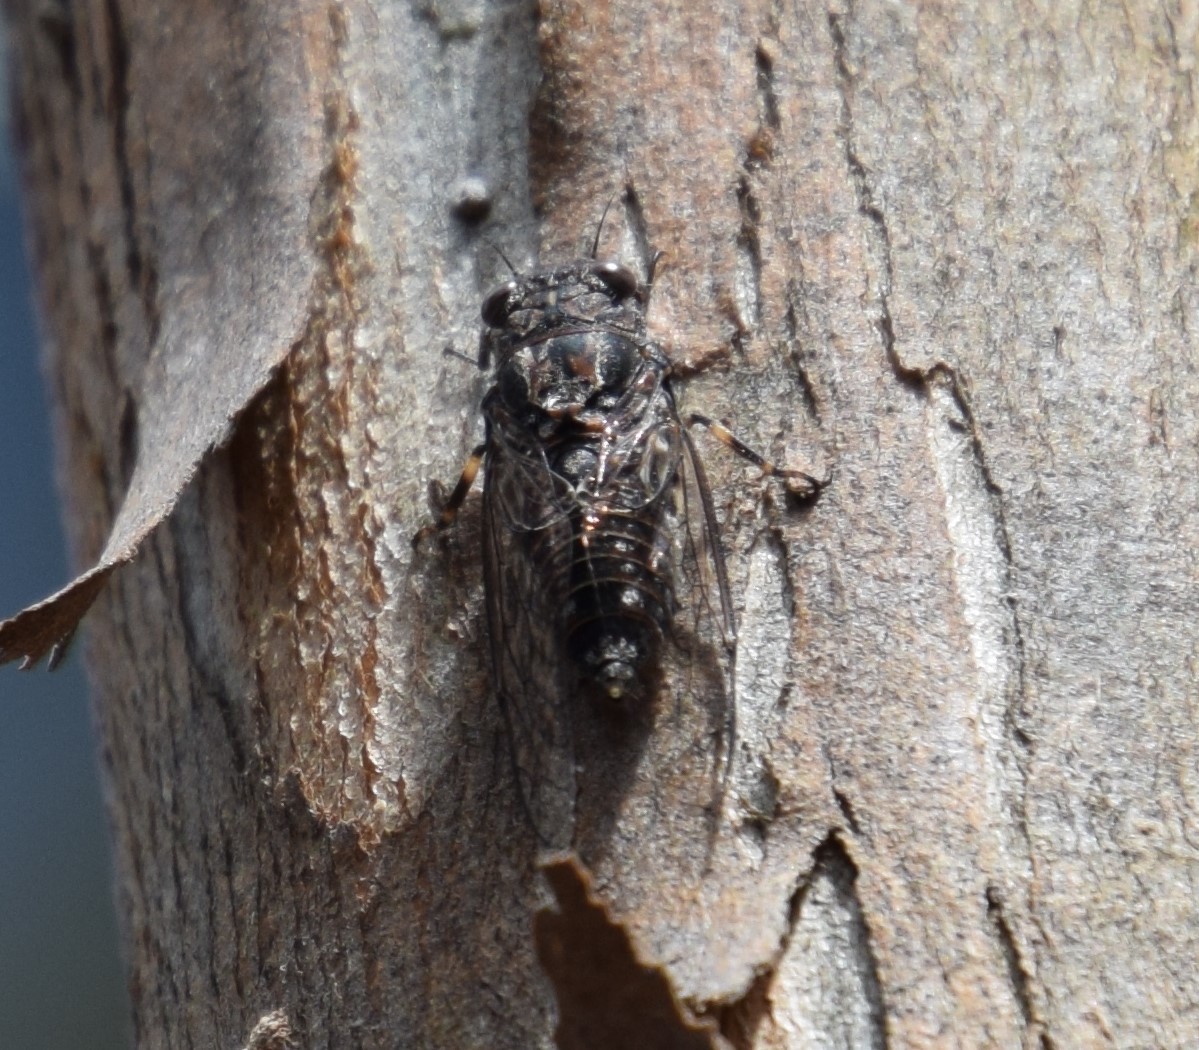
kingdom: Animalia
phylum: Arthropoda
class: Insecta
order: Hemiptera
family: Cicadidae
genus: Myopsalta
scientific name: Myopsalta mackinlayi
